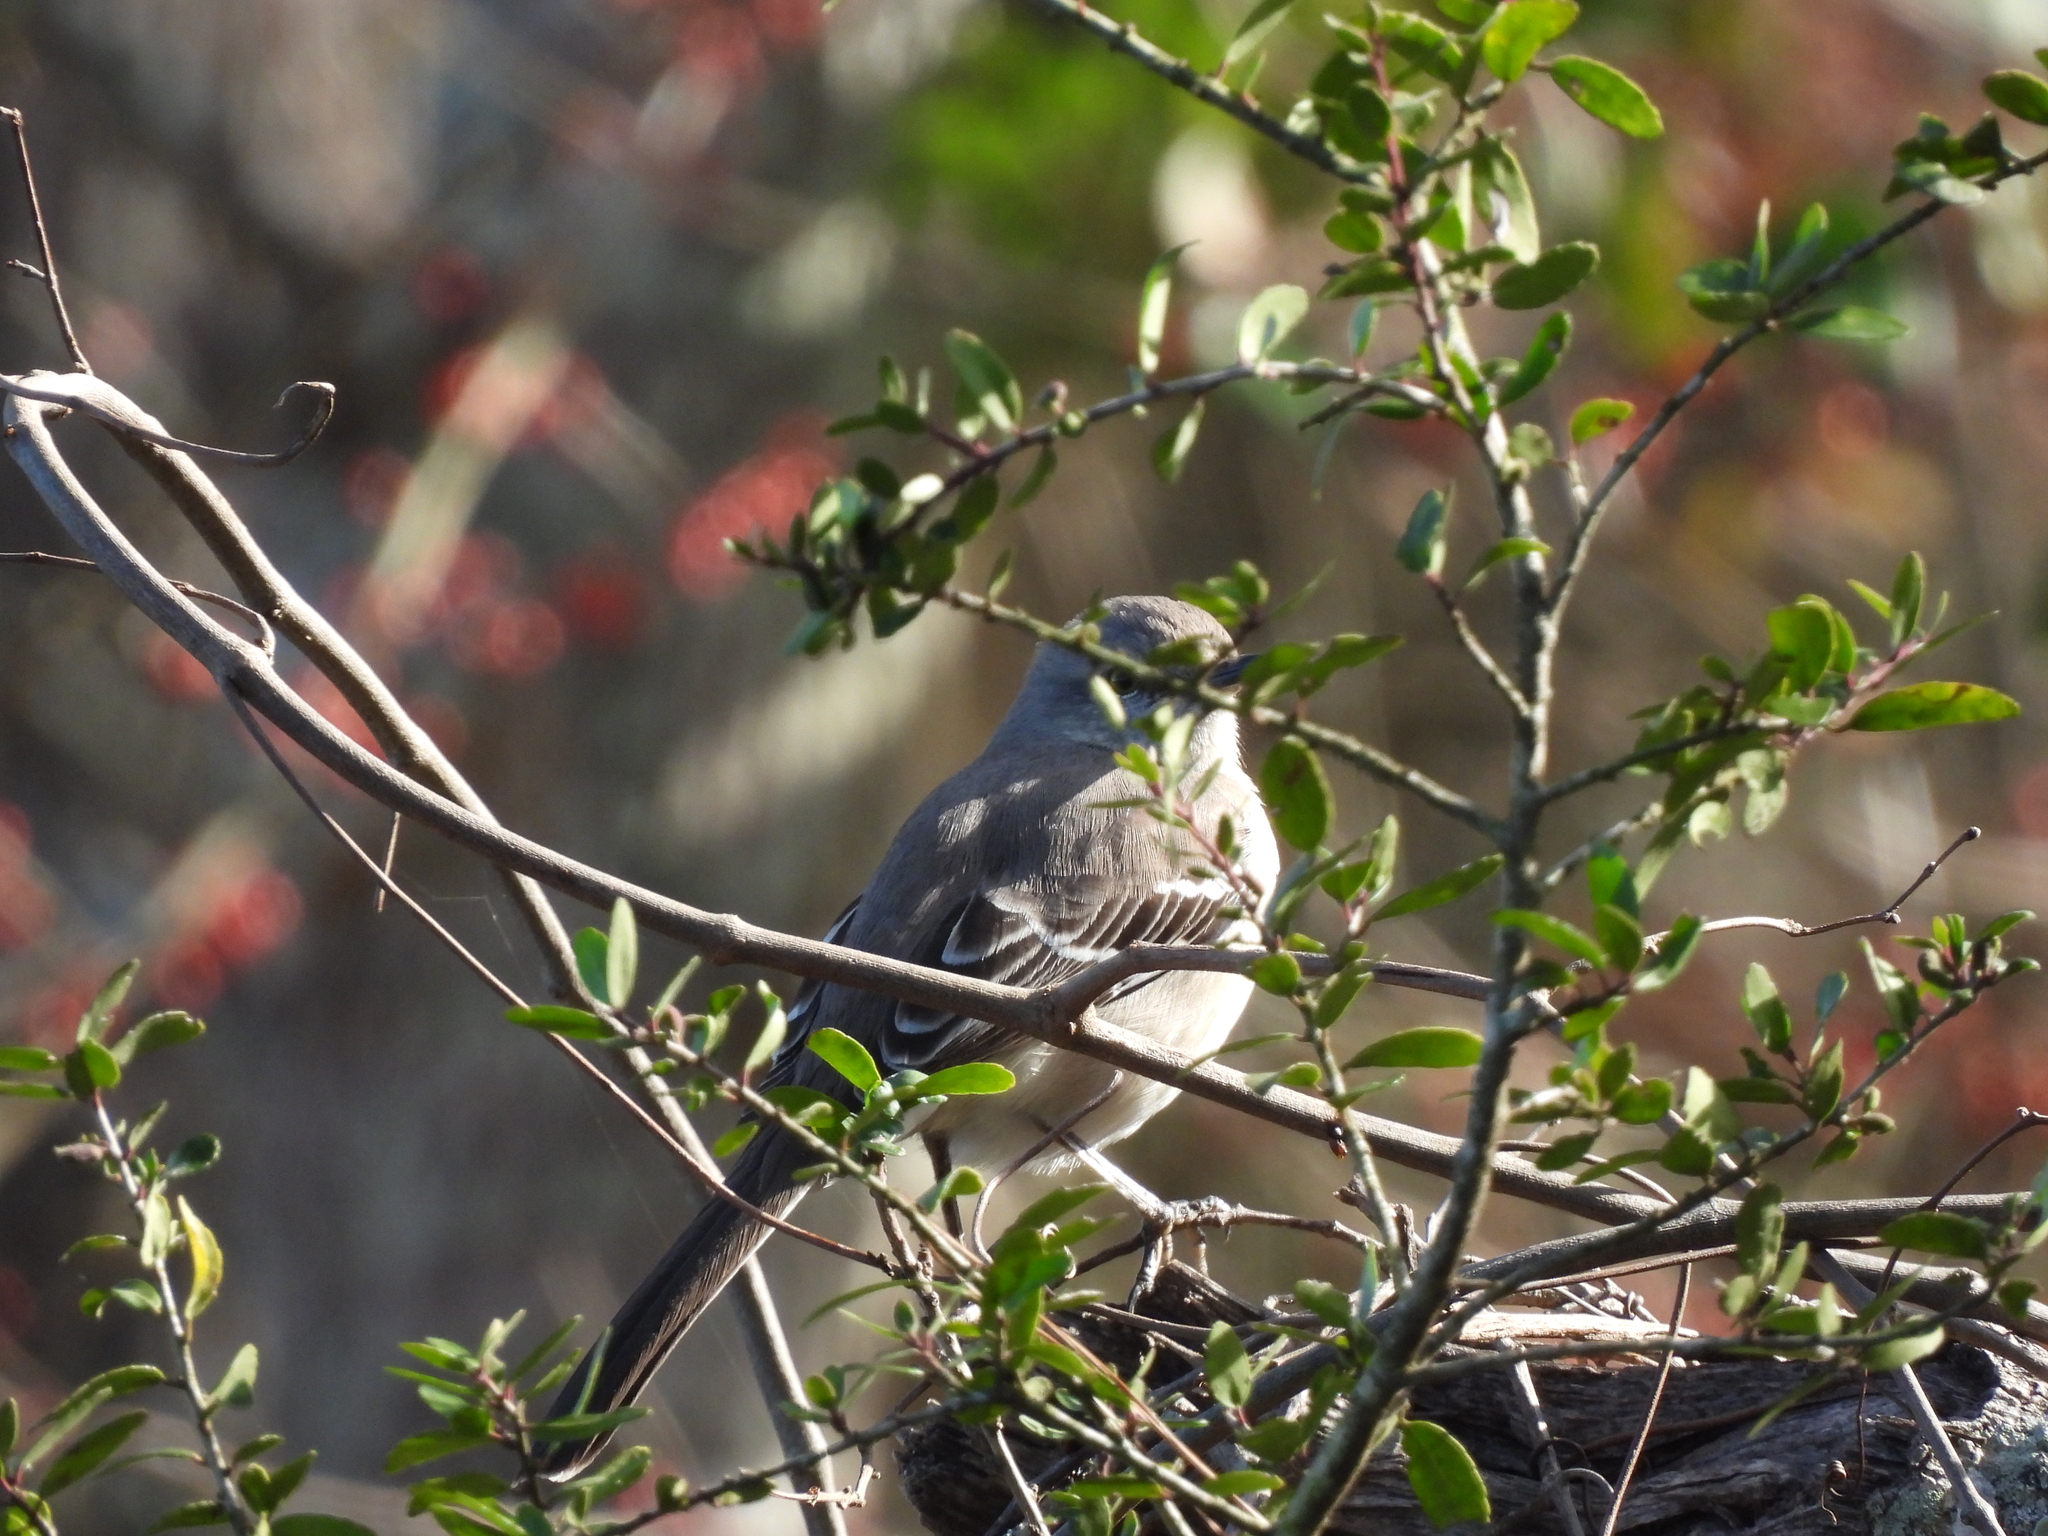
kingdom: Animalia
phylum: Chordata
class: Aves
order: Passeriformes
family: Mimidae
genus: Mimus
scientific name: Mimus polyglottos
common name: Northern mockingbird
